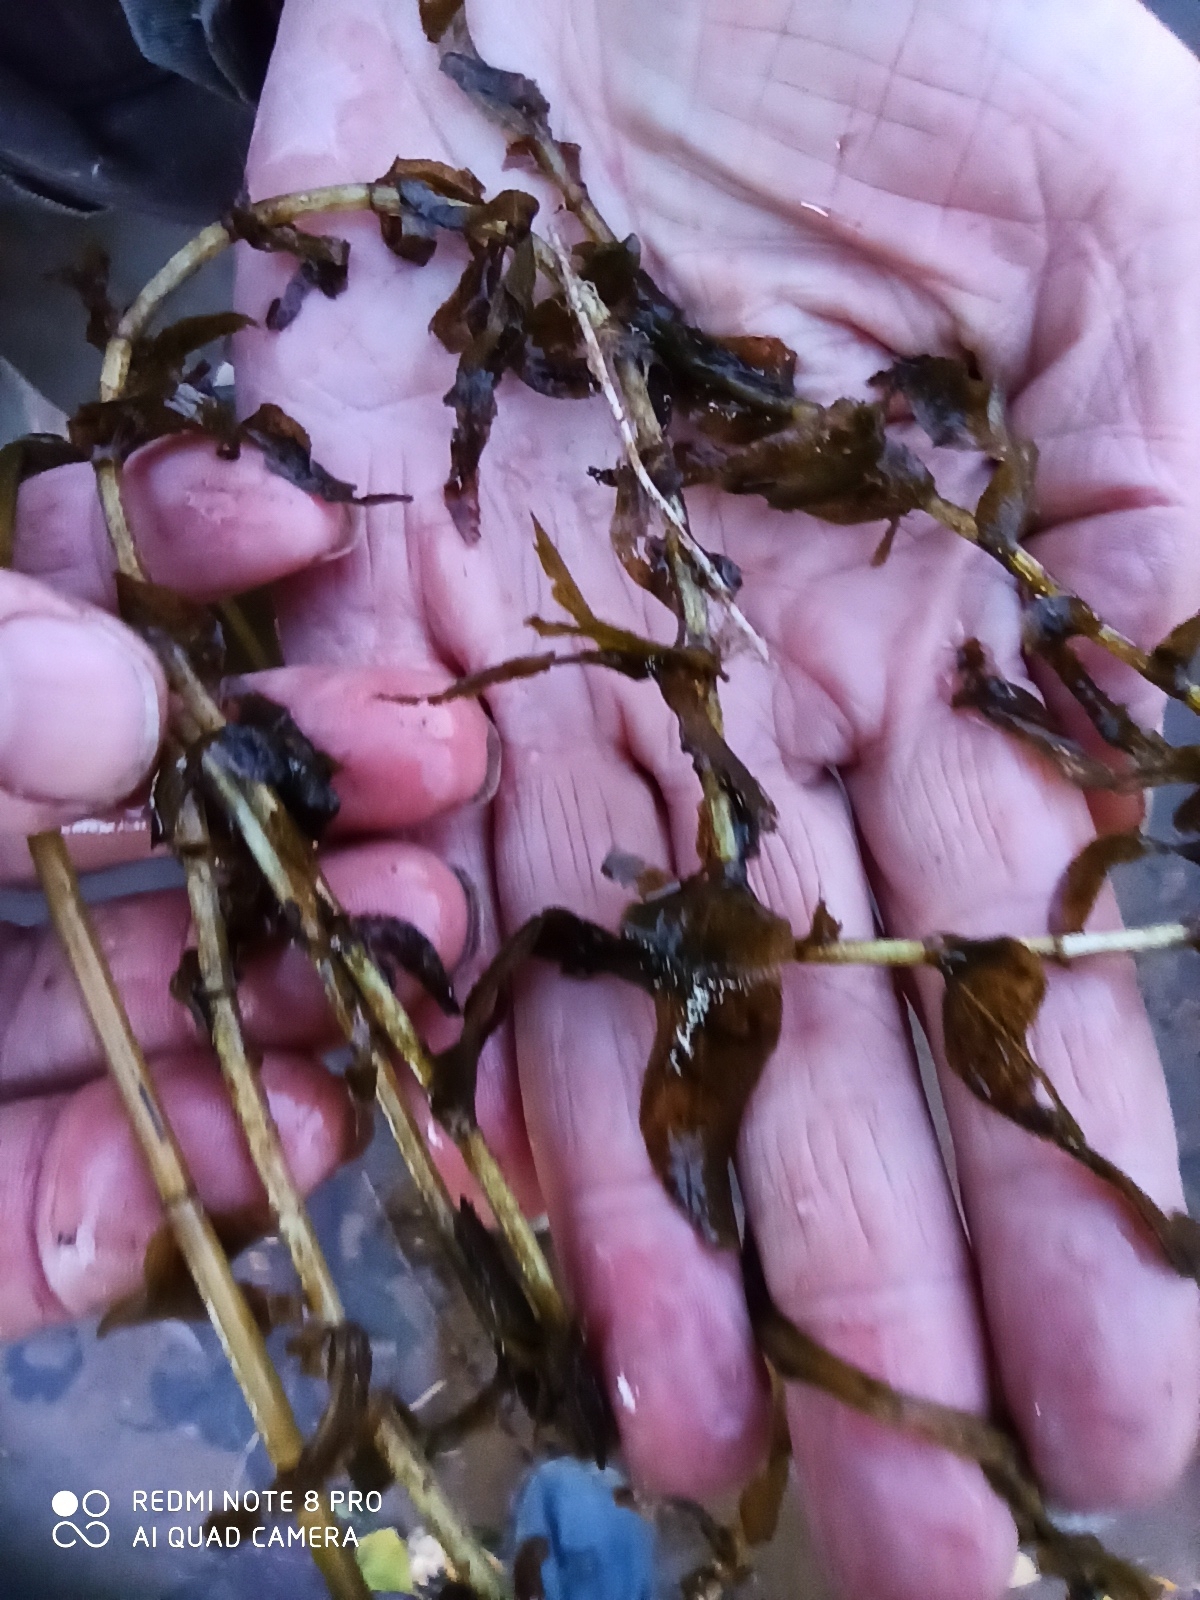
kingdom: Plantae
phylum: Tracheophyta
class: Liliopsida
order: Alismatales
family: Potamogetonaceae
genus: Potamogeton
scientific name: Potamogeton perfoliatus
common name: Perfoliate pondweed
